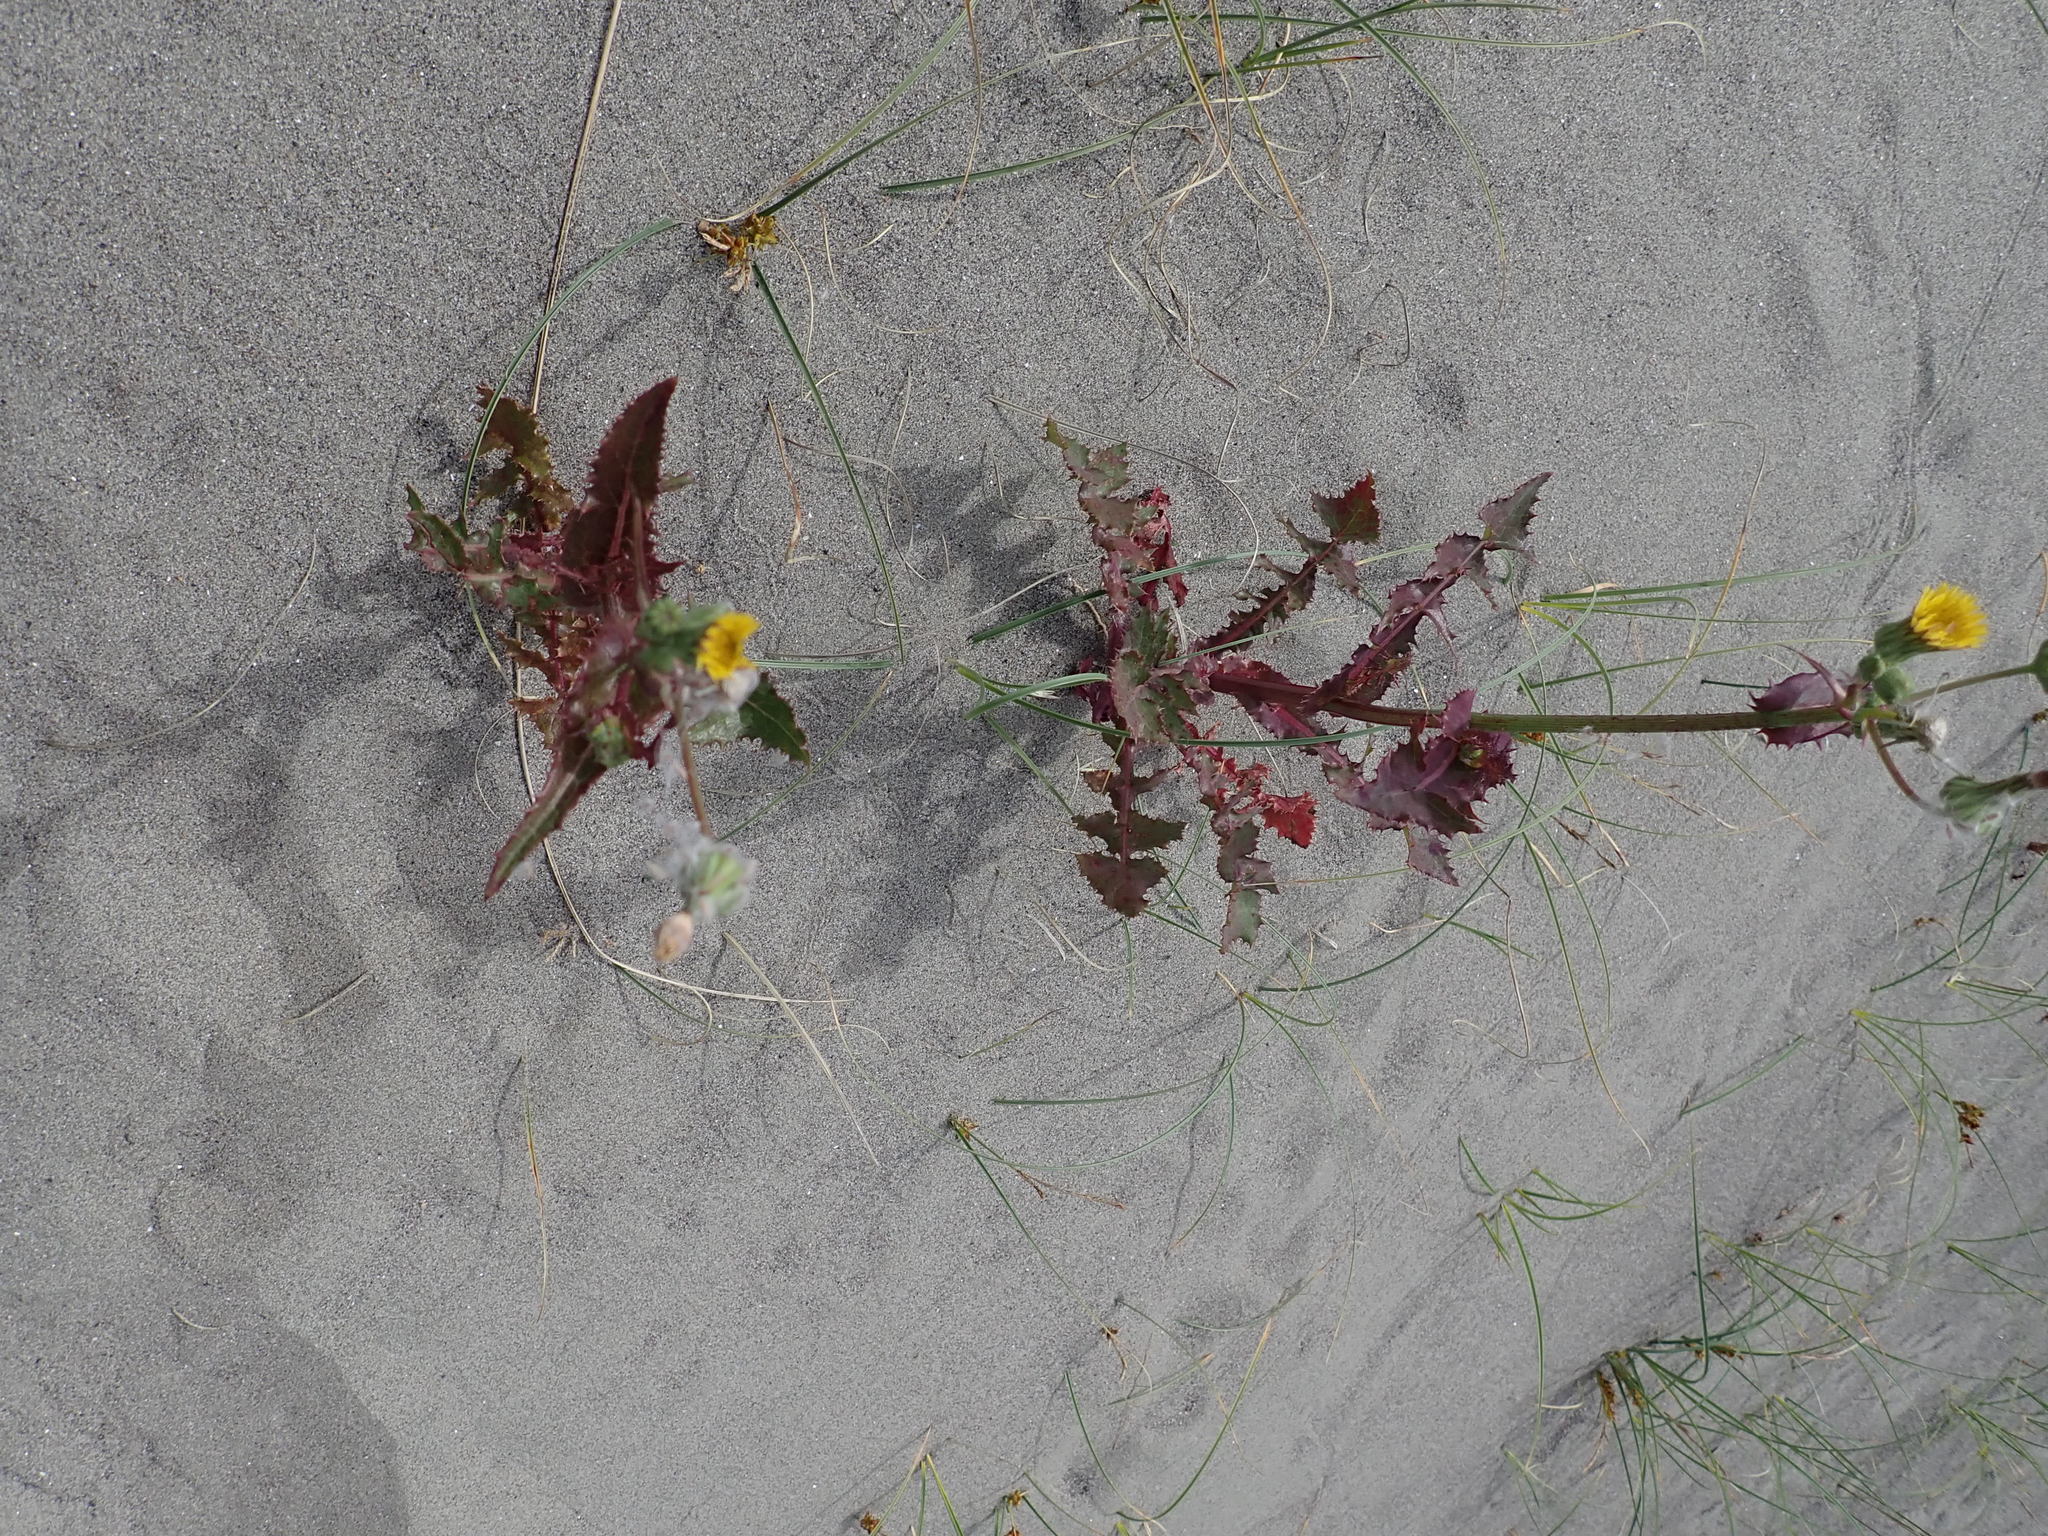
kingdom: Plantae
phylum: Tracheophyta
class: Magnoliopsida
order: Asterales
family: Asteraceae
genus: Sonchus
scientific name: Sonchus oleraceus
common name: Common sowthistle
